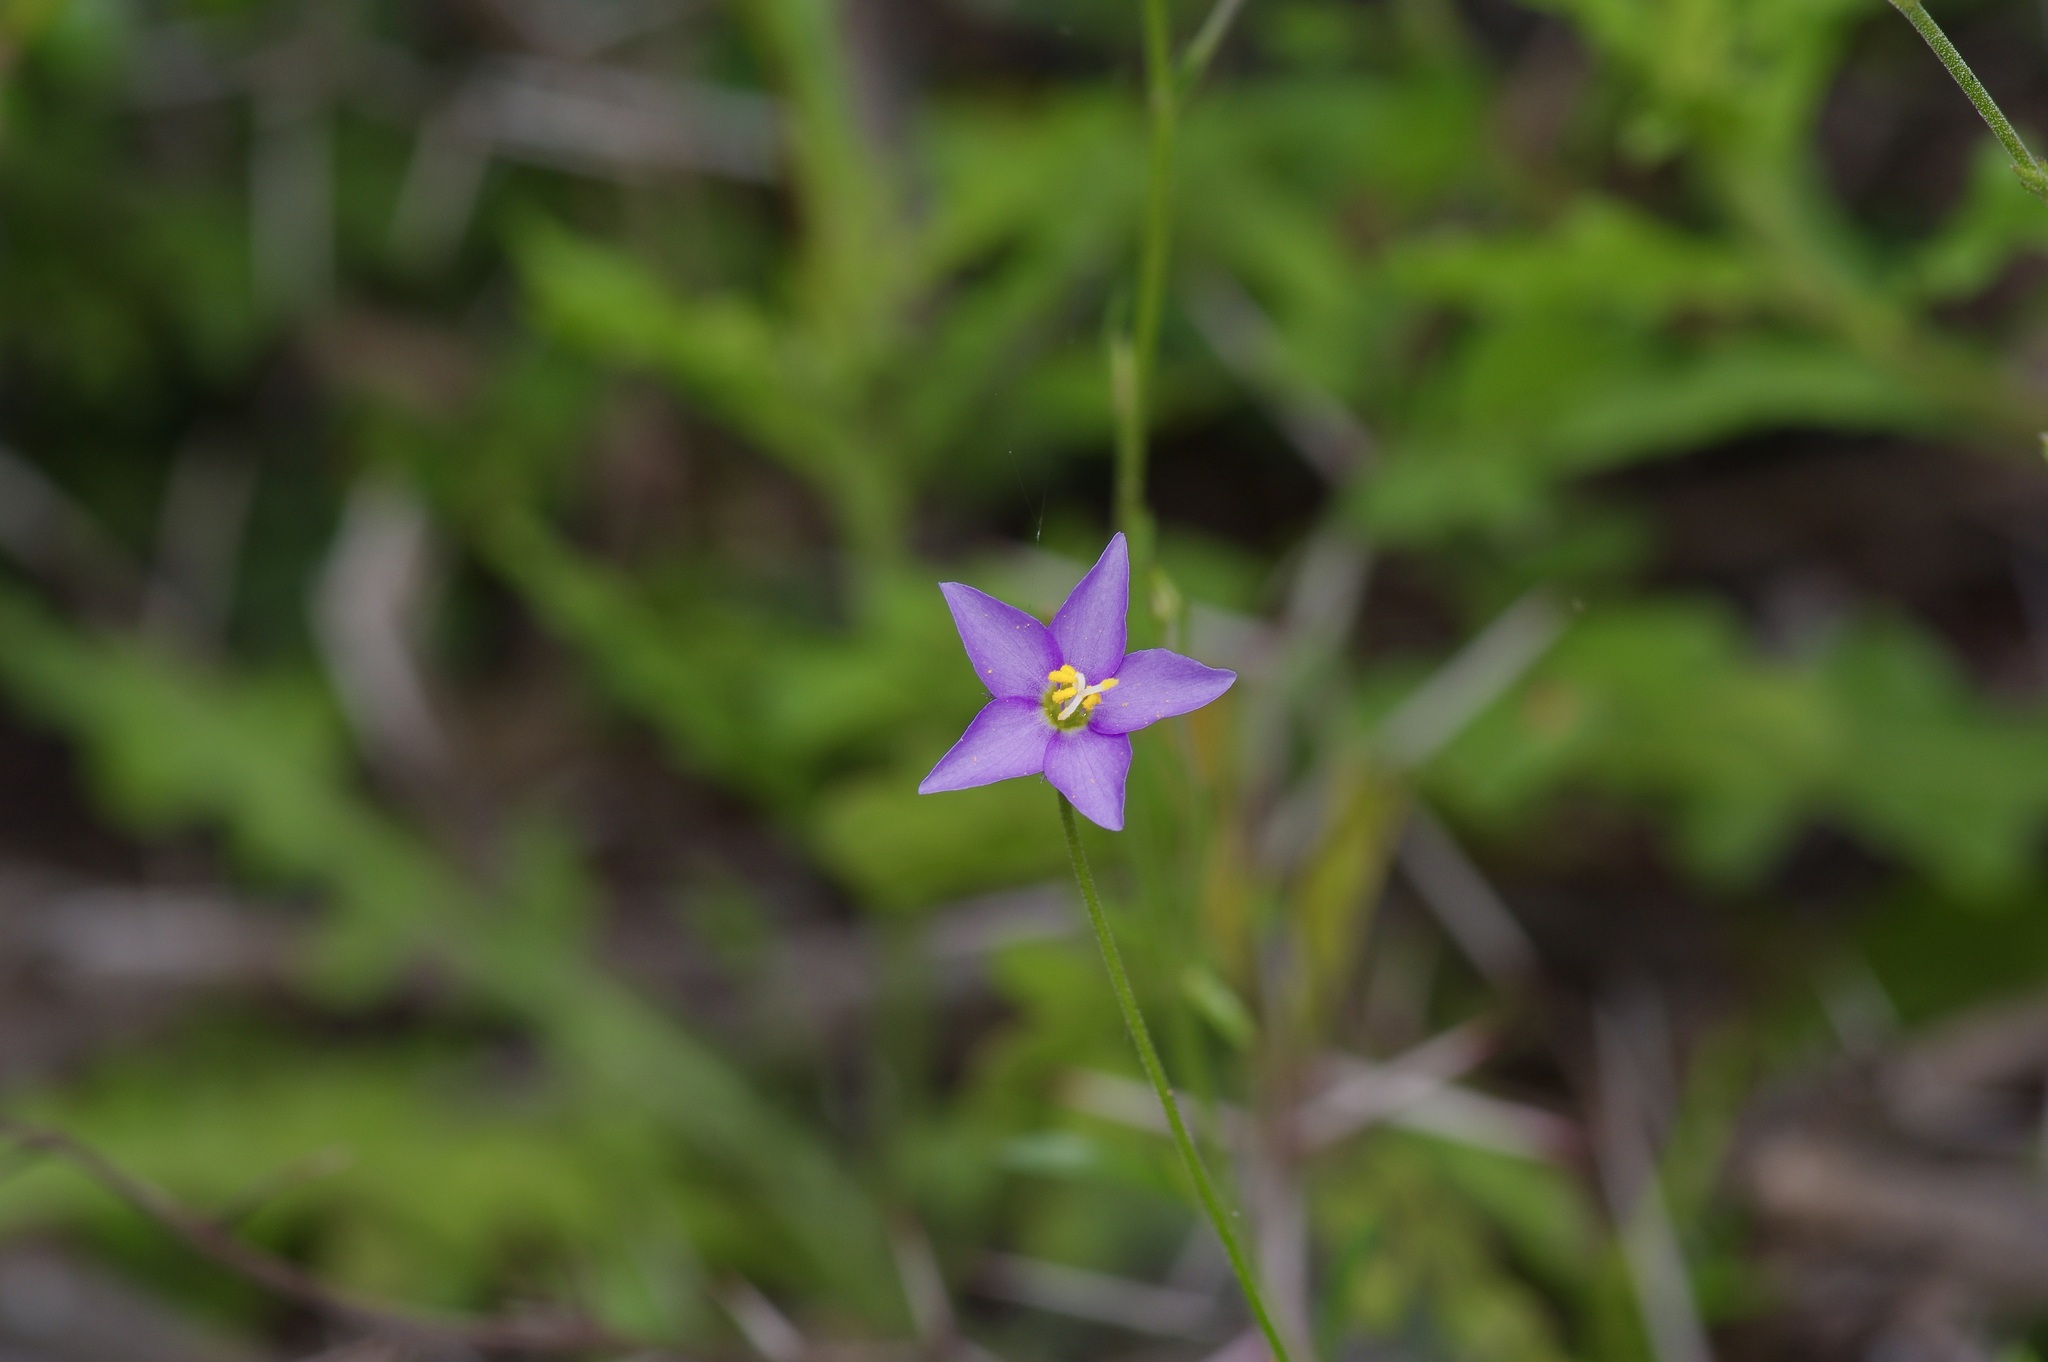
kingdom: Plantae
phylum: Tracheophyta
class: Magnoliopsida
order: Ericales
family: Polemoniaceae
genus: Giliastrum
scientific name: Giliastrum incisum
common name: Splitleaf gilia
